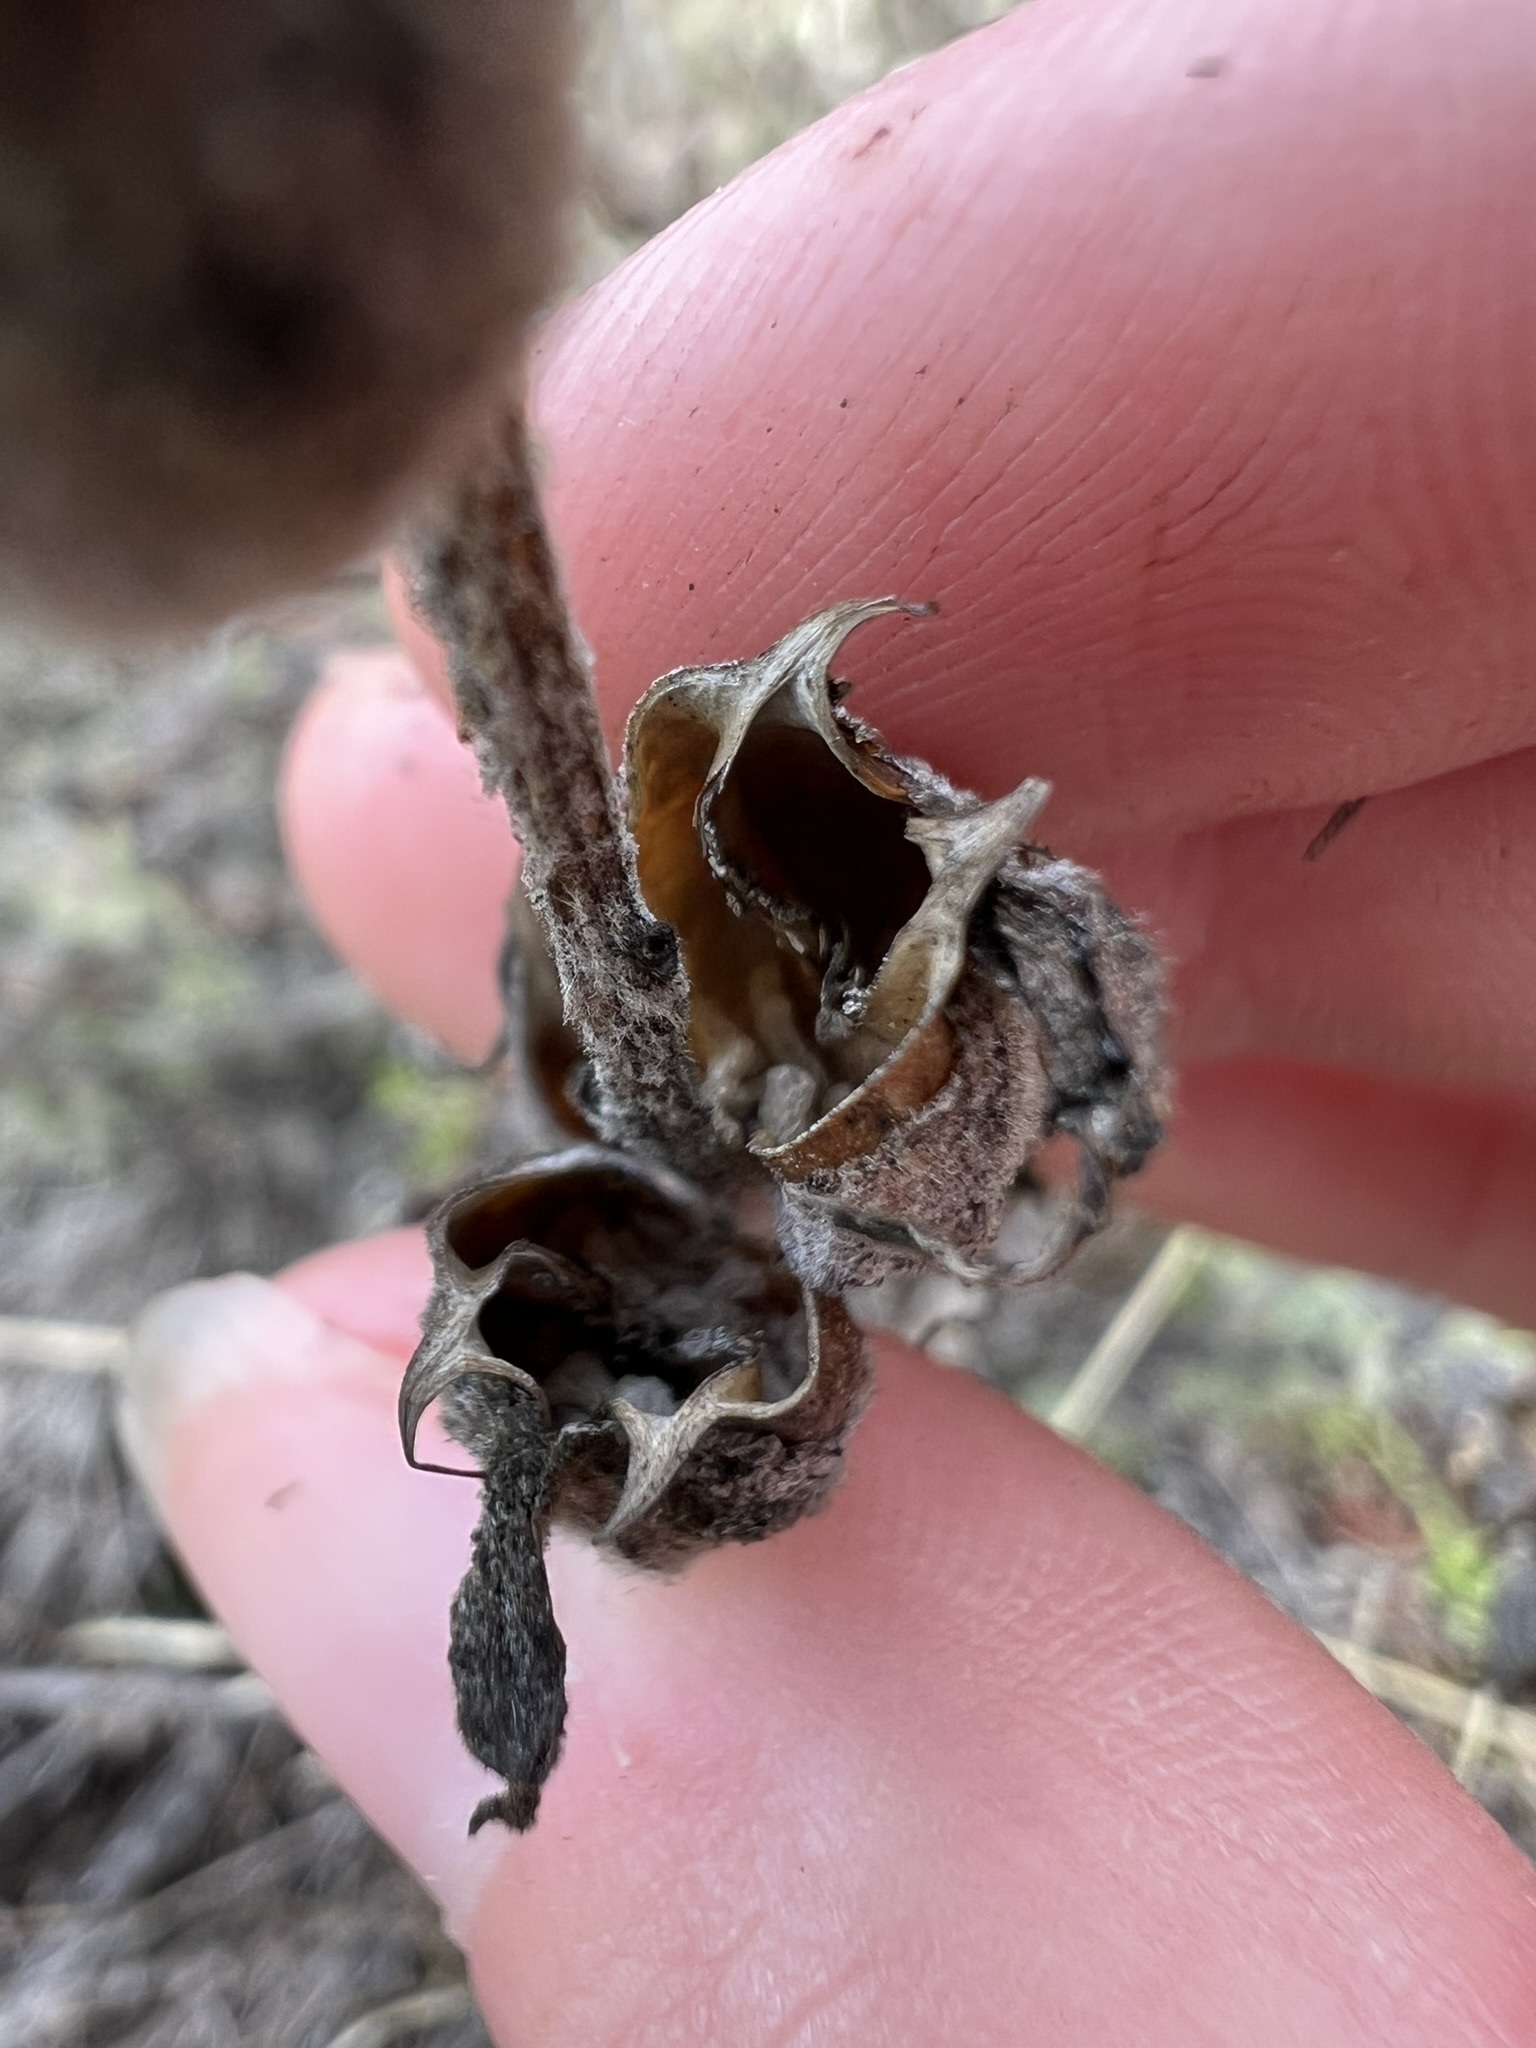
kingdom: Plantae
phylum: Tracheophyta
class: Magnoliopsida
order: Lamiales
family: Orobanchaceae
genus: Castilleja
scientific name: Castilleja foliolosa
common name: Woolly indian paintbrush
